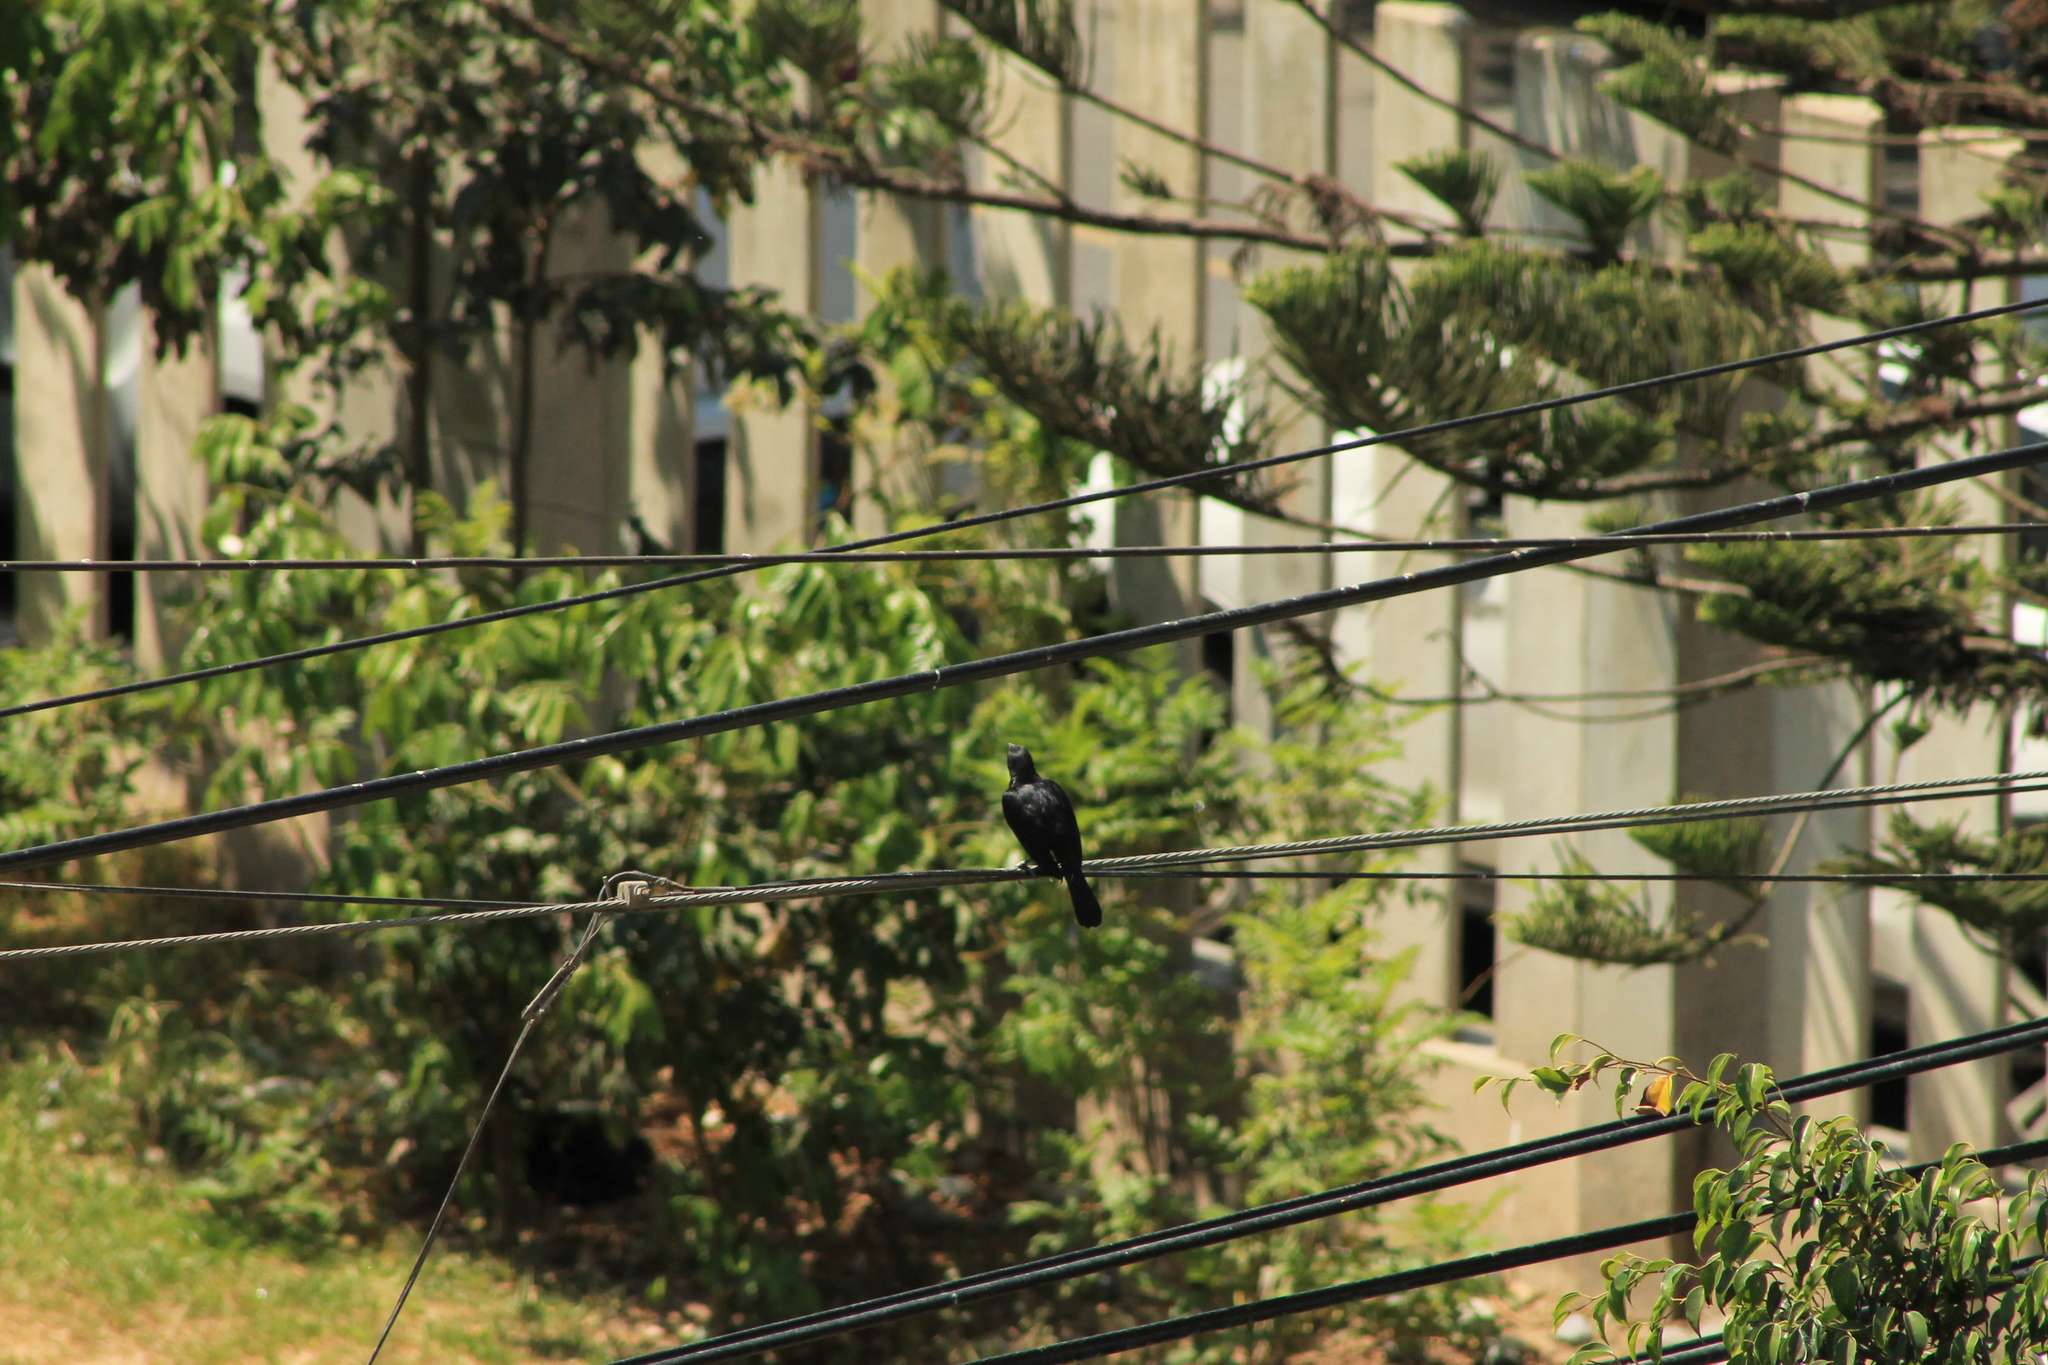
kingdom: Animalia
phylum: Chordata
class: Aves
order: Passeriformes
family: Icteridae
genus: Dives
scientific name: Dives warczewiczi
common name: Scrub blackbird
